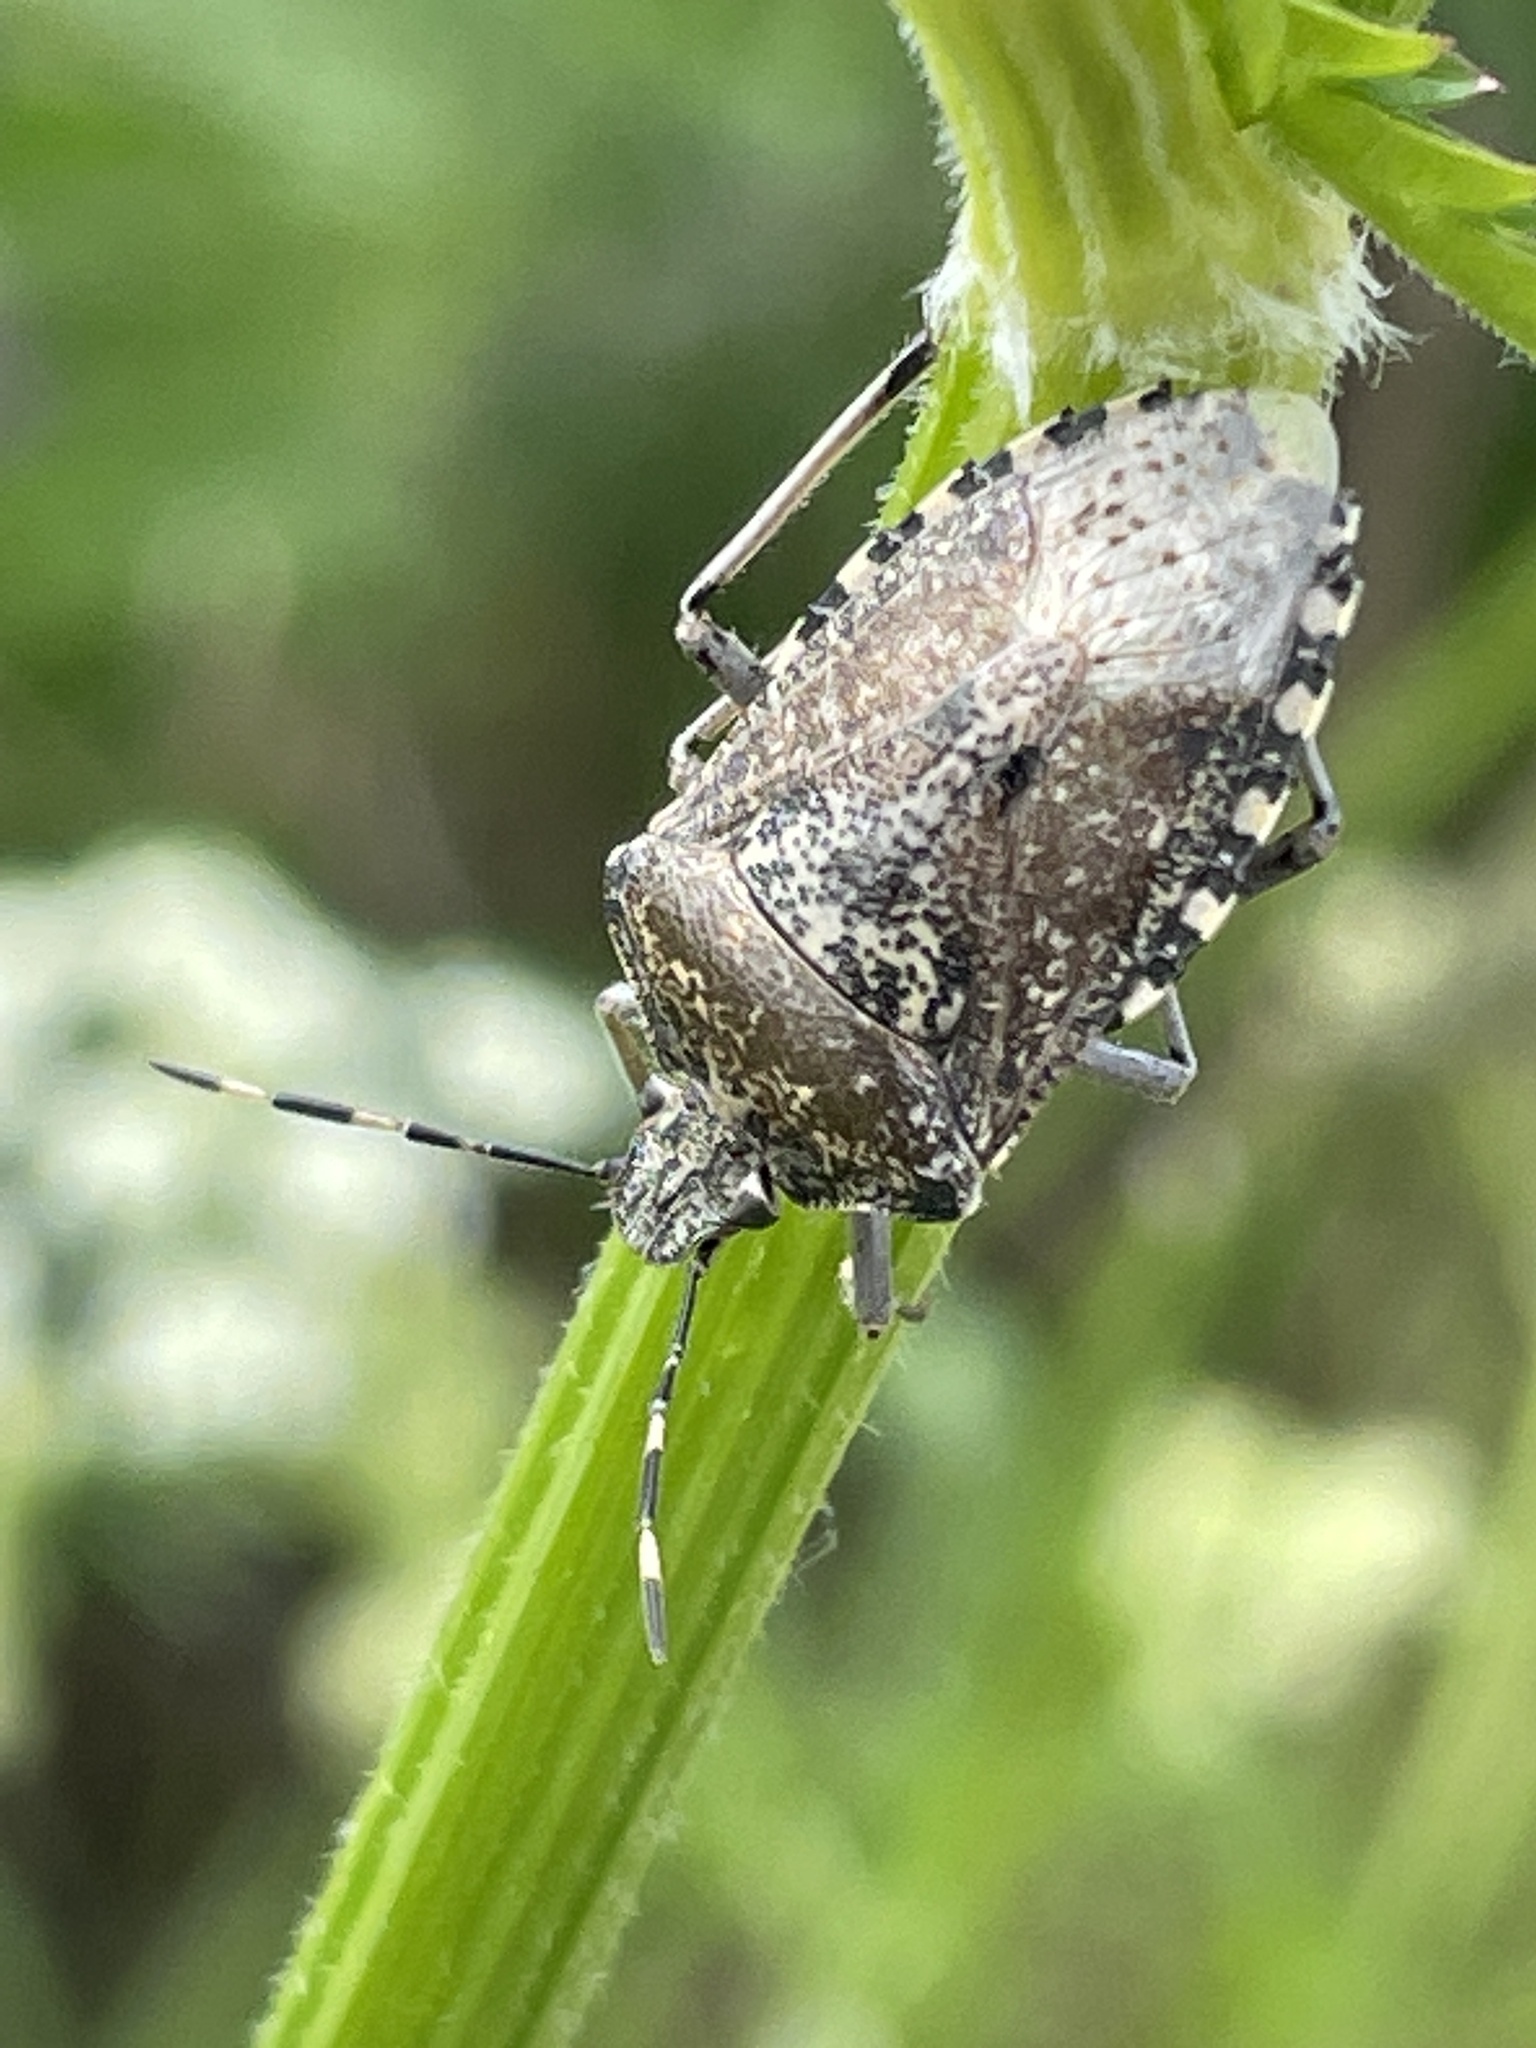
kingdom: Animalia
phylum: Arthropoda
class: Insecta
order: Hemiptera
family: Pentatomidae
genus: Rhaphigaster
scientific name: Rhaphigaster nebulosa
